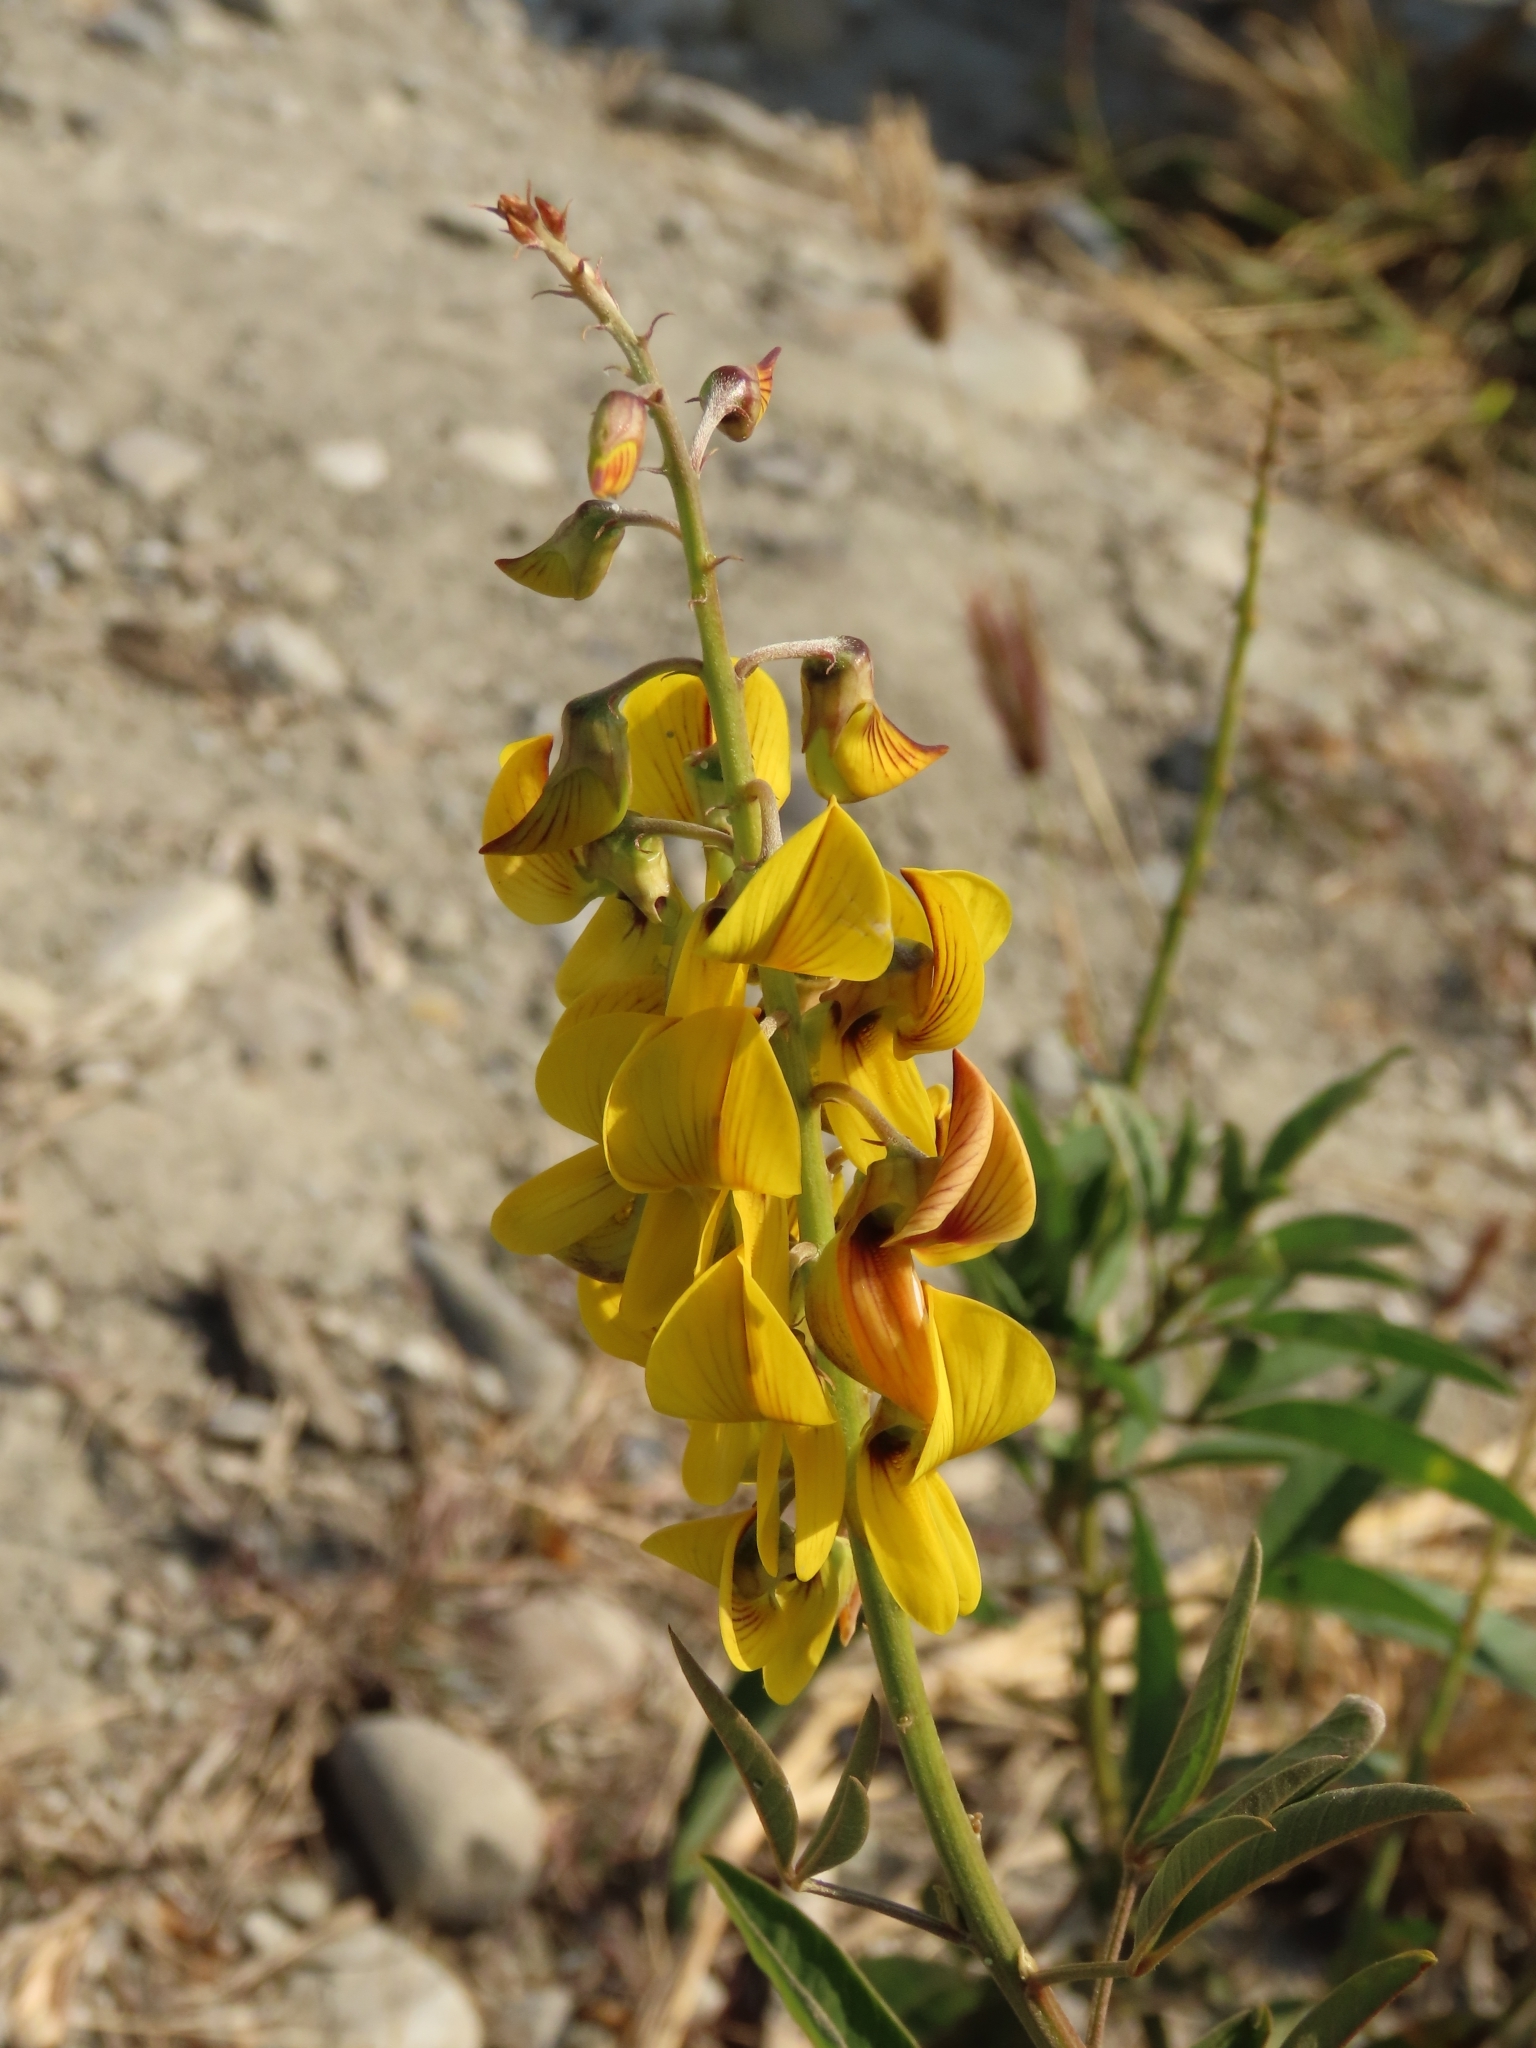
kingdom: Plantae
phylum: Tracheophyta
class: Magnoliopsida
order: Fabales
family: Fabaceae
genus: Crotalaria
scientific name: Crotalaria trichotoma
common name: West indian rattlebox
